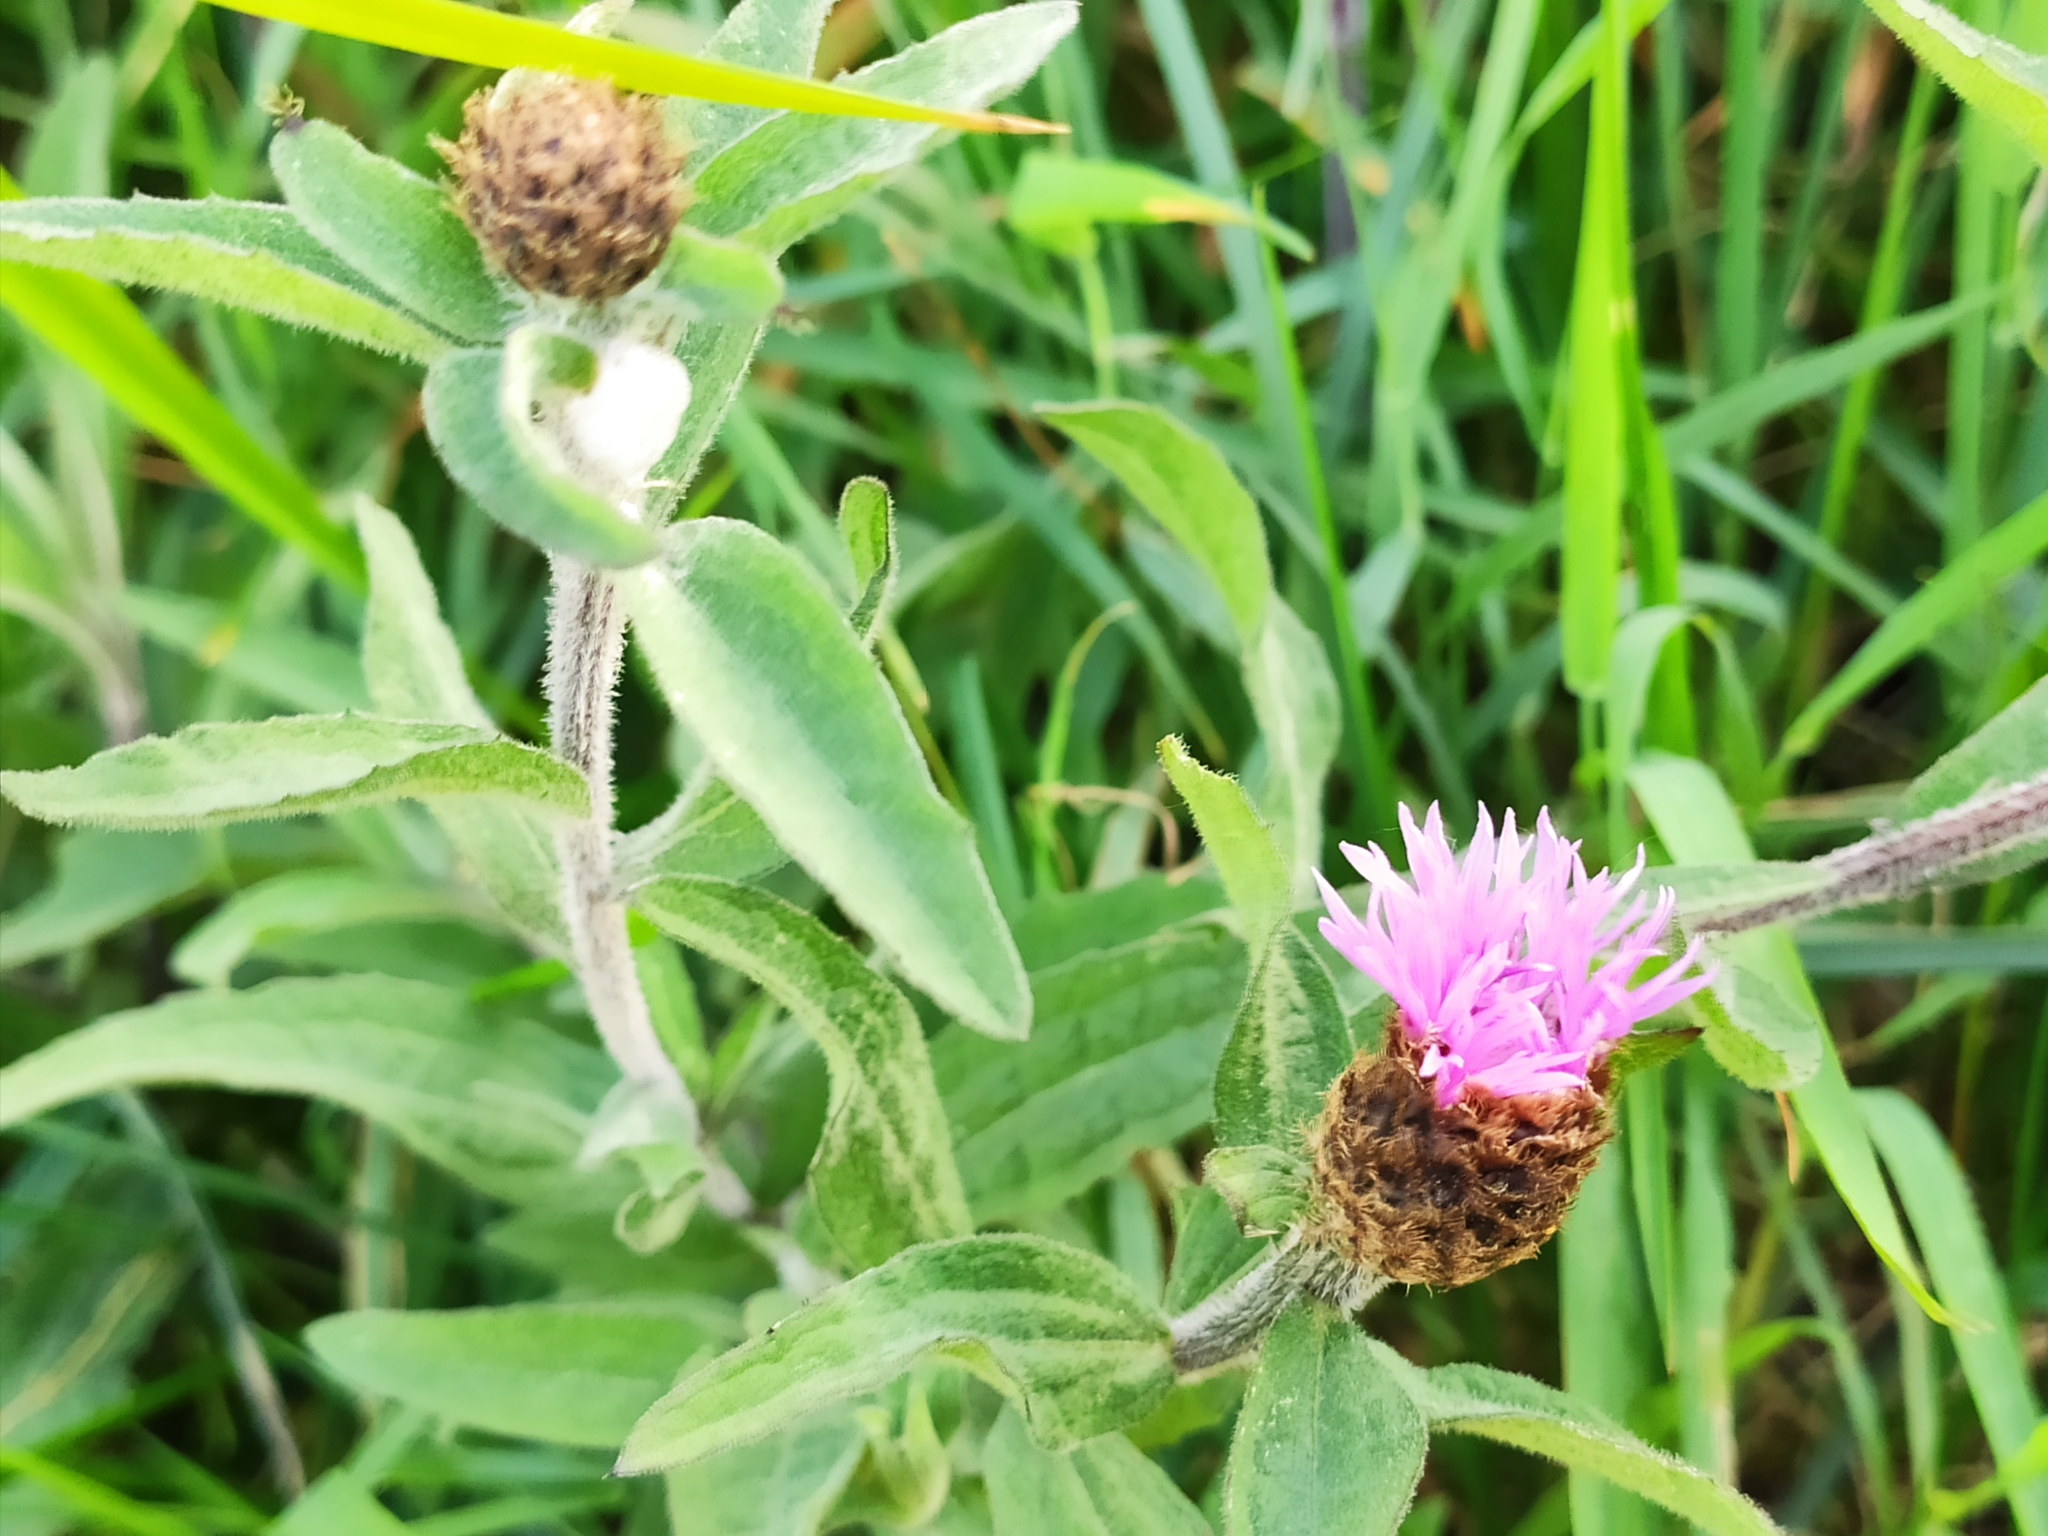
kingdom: Plantae
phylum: Tracheophyta
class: Magnoliopsida
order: Asterales
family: Asteraceae
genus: Centaurea
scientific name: Centaurea nigra
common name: Lesser knapweed
